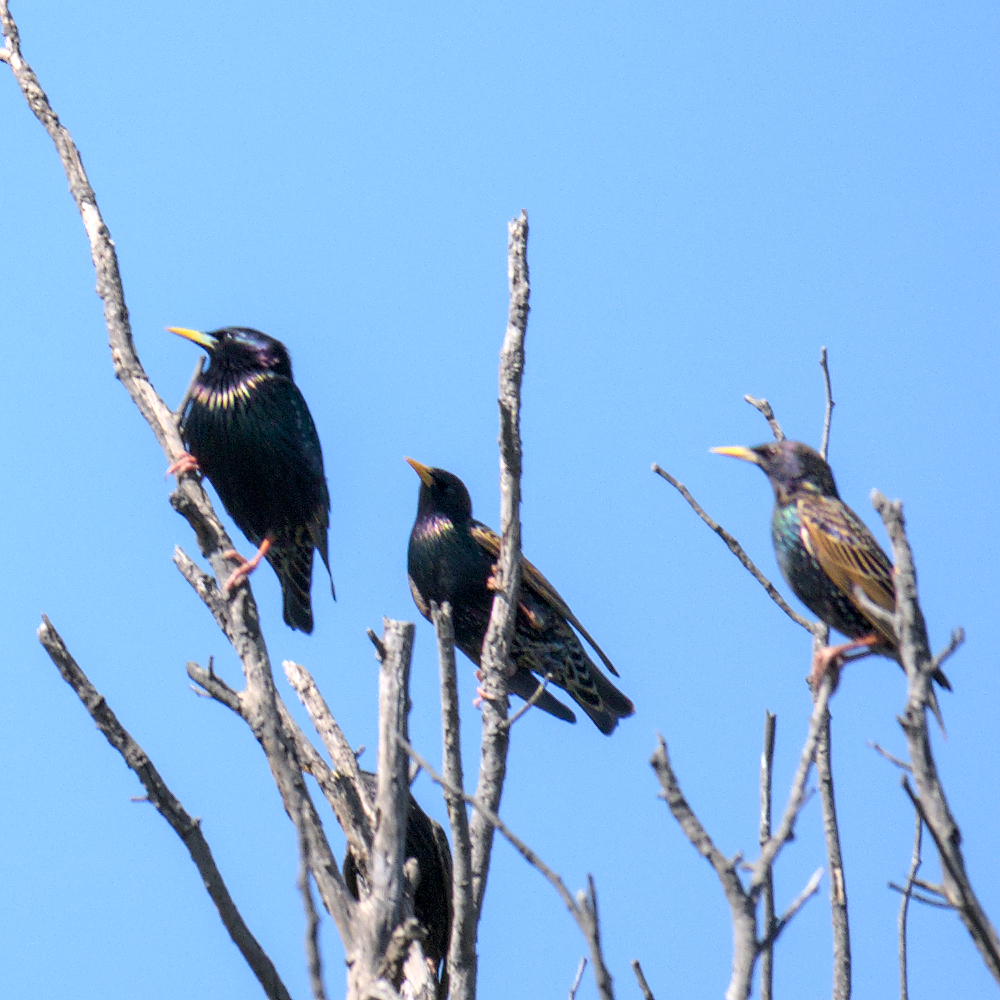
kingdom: Animalia
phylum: Chordata
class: Aves
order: Passeriformes
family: Sturnidae
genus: Sturnus
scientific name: Sturnus vulgaris
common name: Common starling
